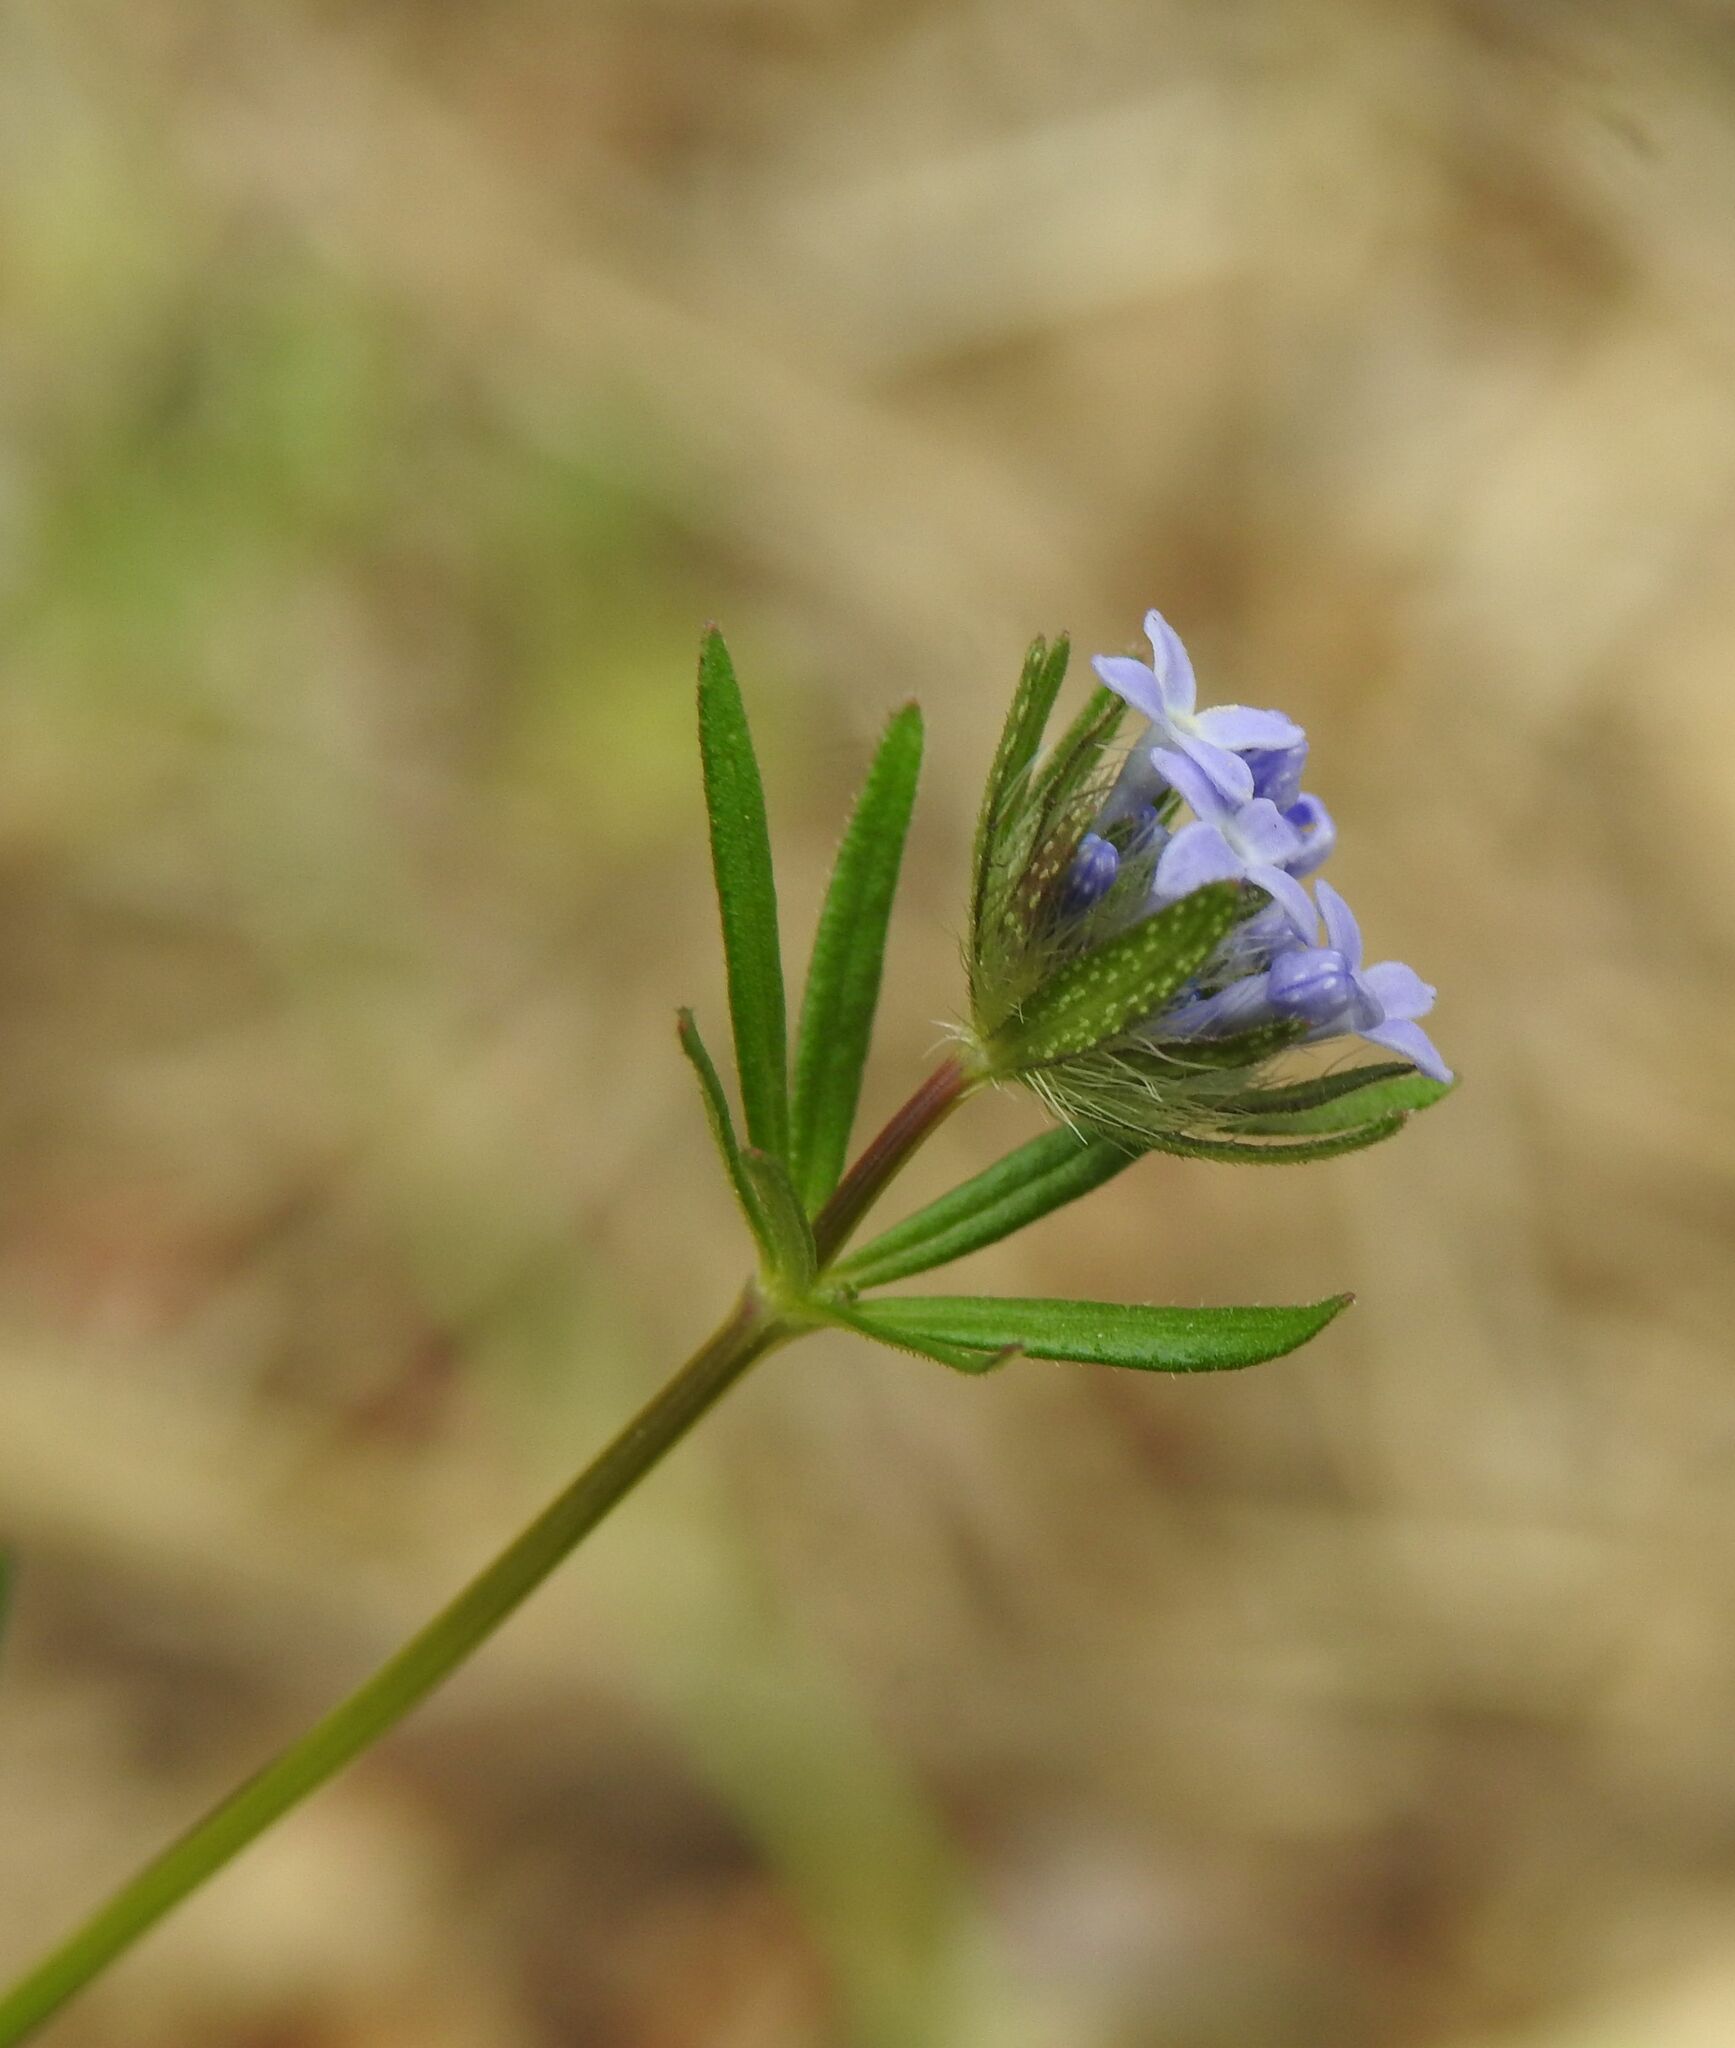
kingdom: Plantae
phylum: Tracheophyta
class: Magnoliopsida
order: Gentianales
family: Rubiaceae
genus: Asperula
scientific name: Asperula arvensis
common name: Blue woodruff
